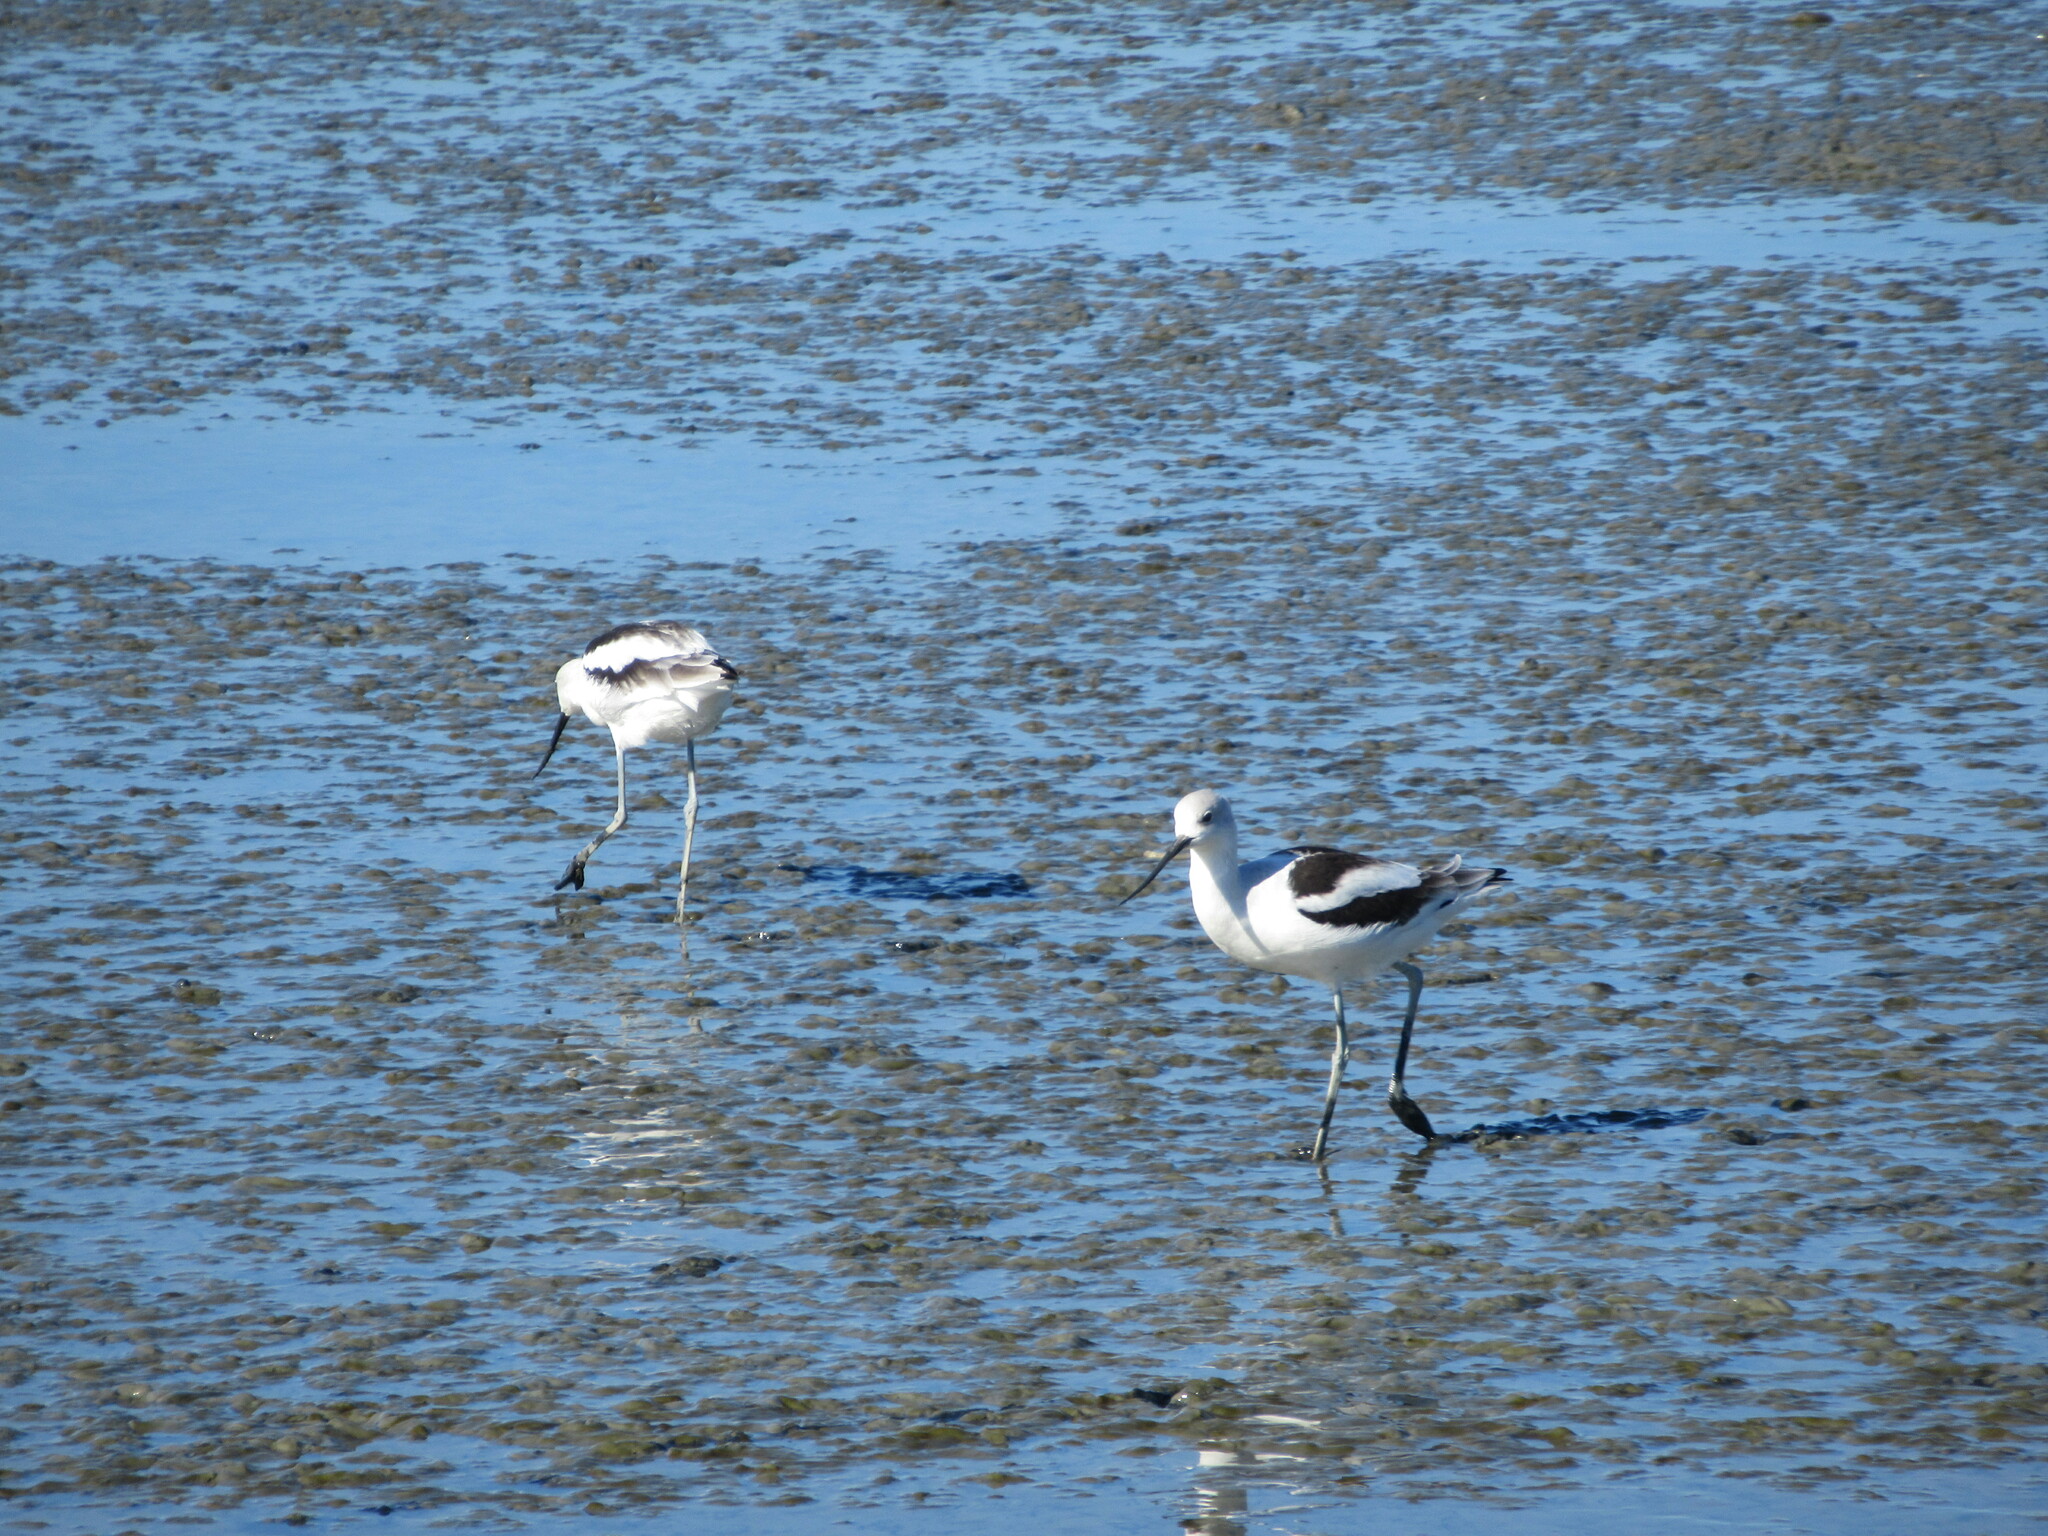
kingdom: Animalia
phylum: Chordata
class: Aves
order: Charadriiformes
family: Recurvirostridae
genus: Recurvirostra
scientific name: Recurvirostra americana
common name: American avocet
